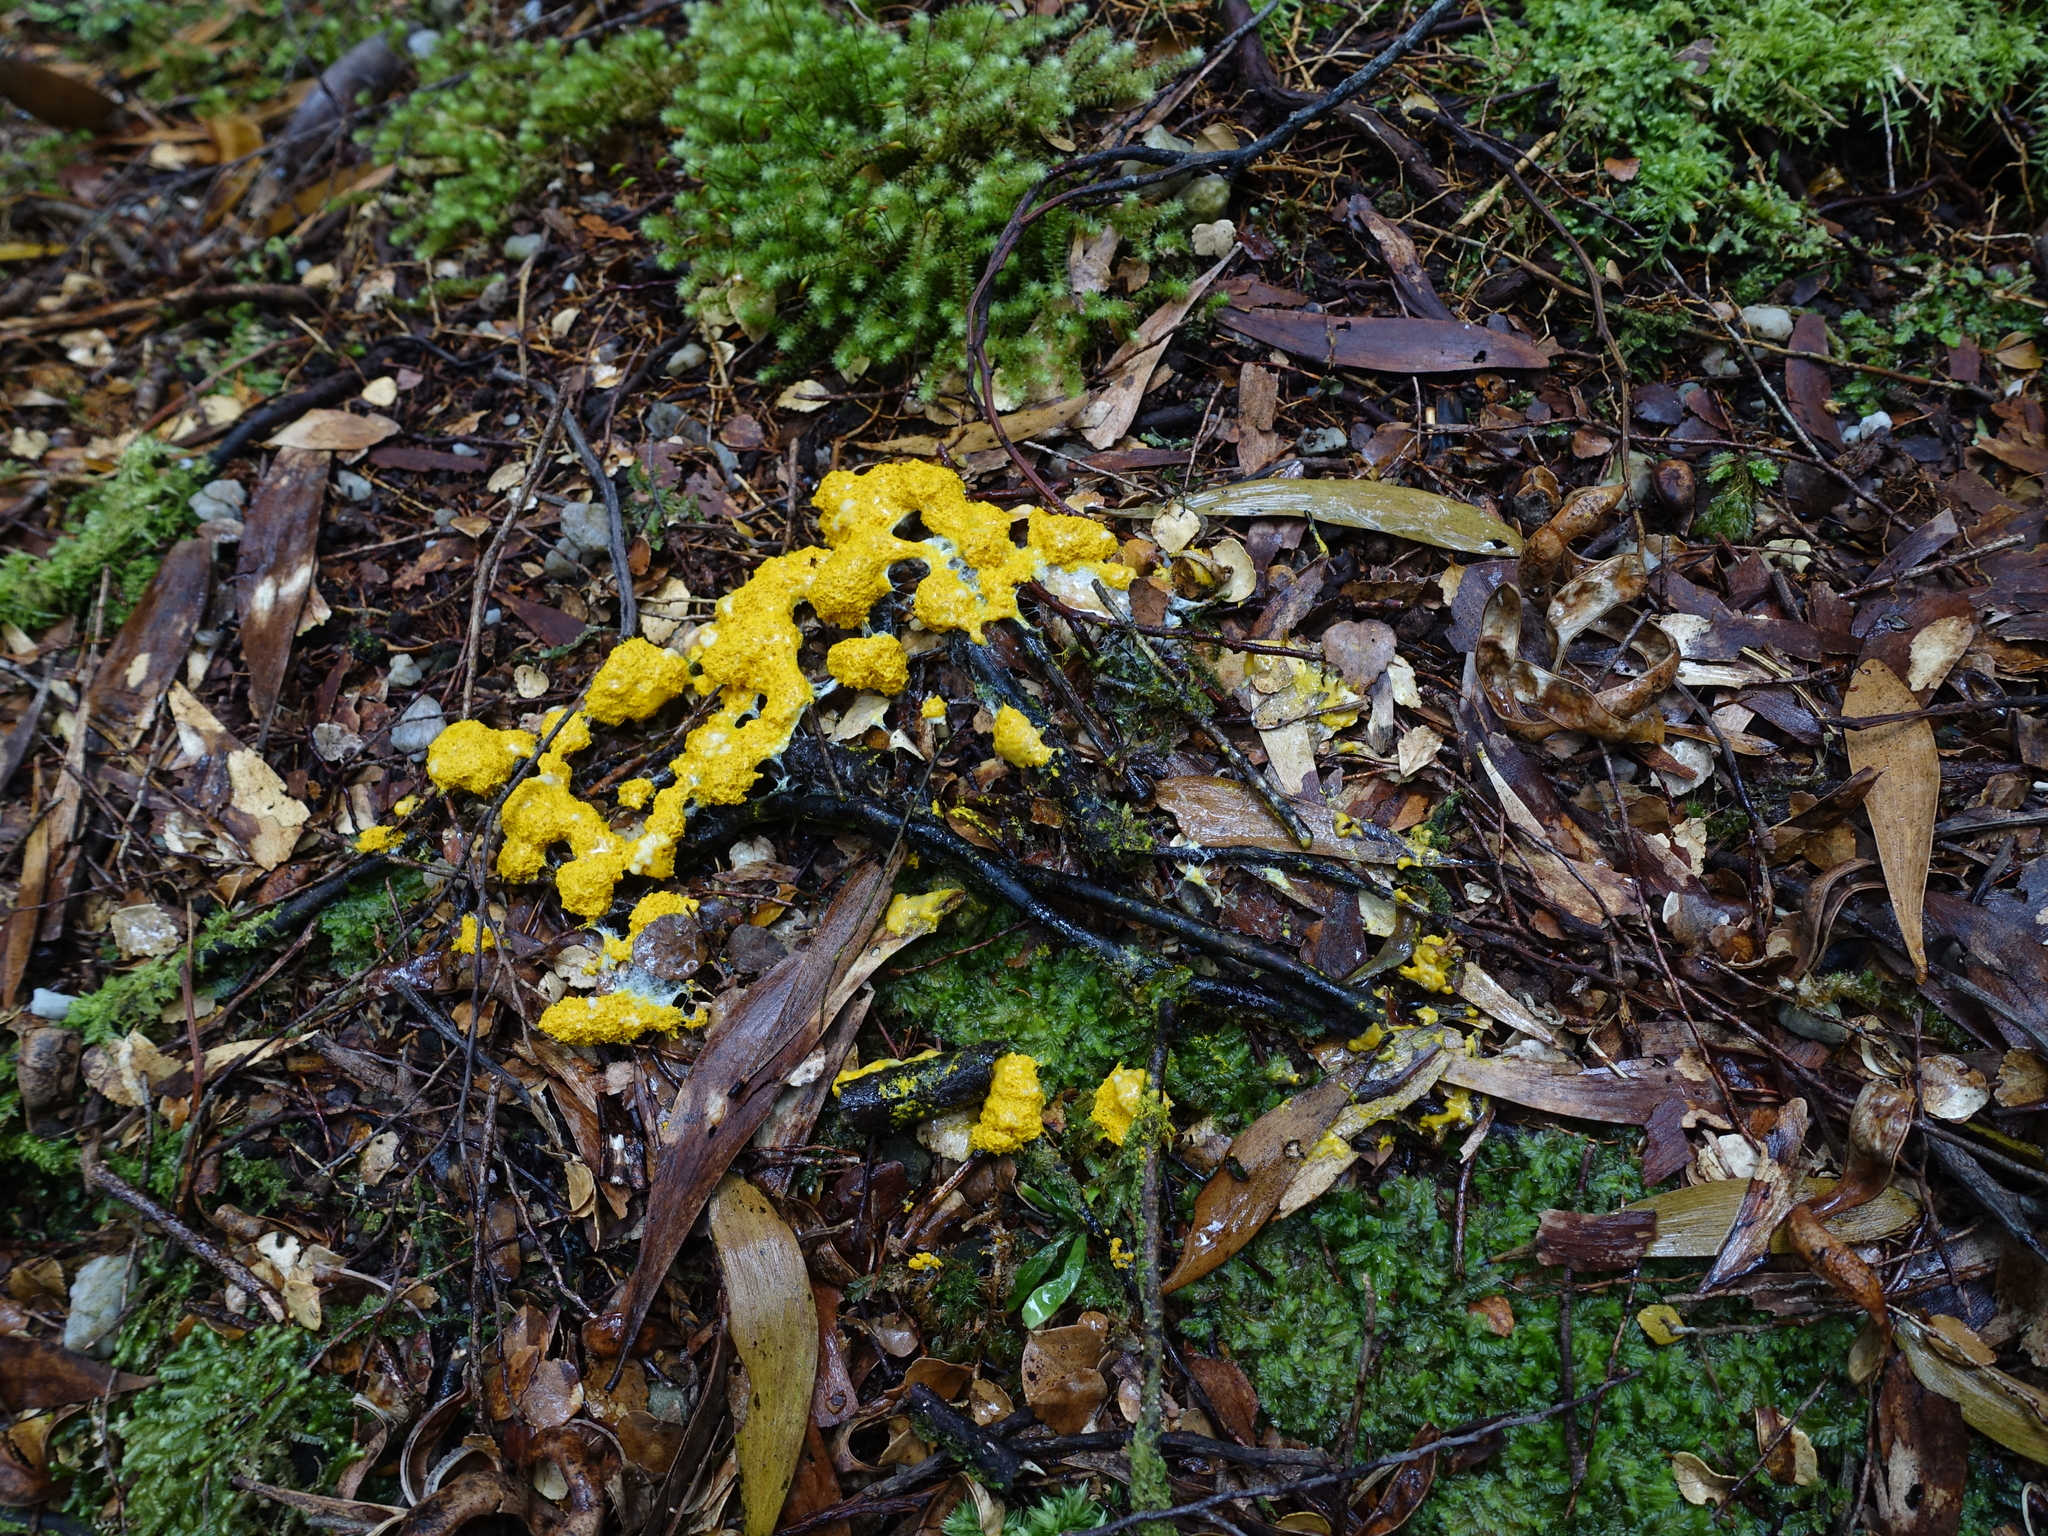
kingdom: Protozoa
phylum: Mycetozoa
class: Myxomycetes
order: Physarales
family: Physaraceae
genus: Fuligo
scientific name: Fuligo septica
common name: Dog vomit slime mold
